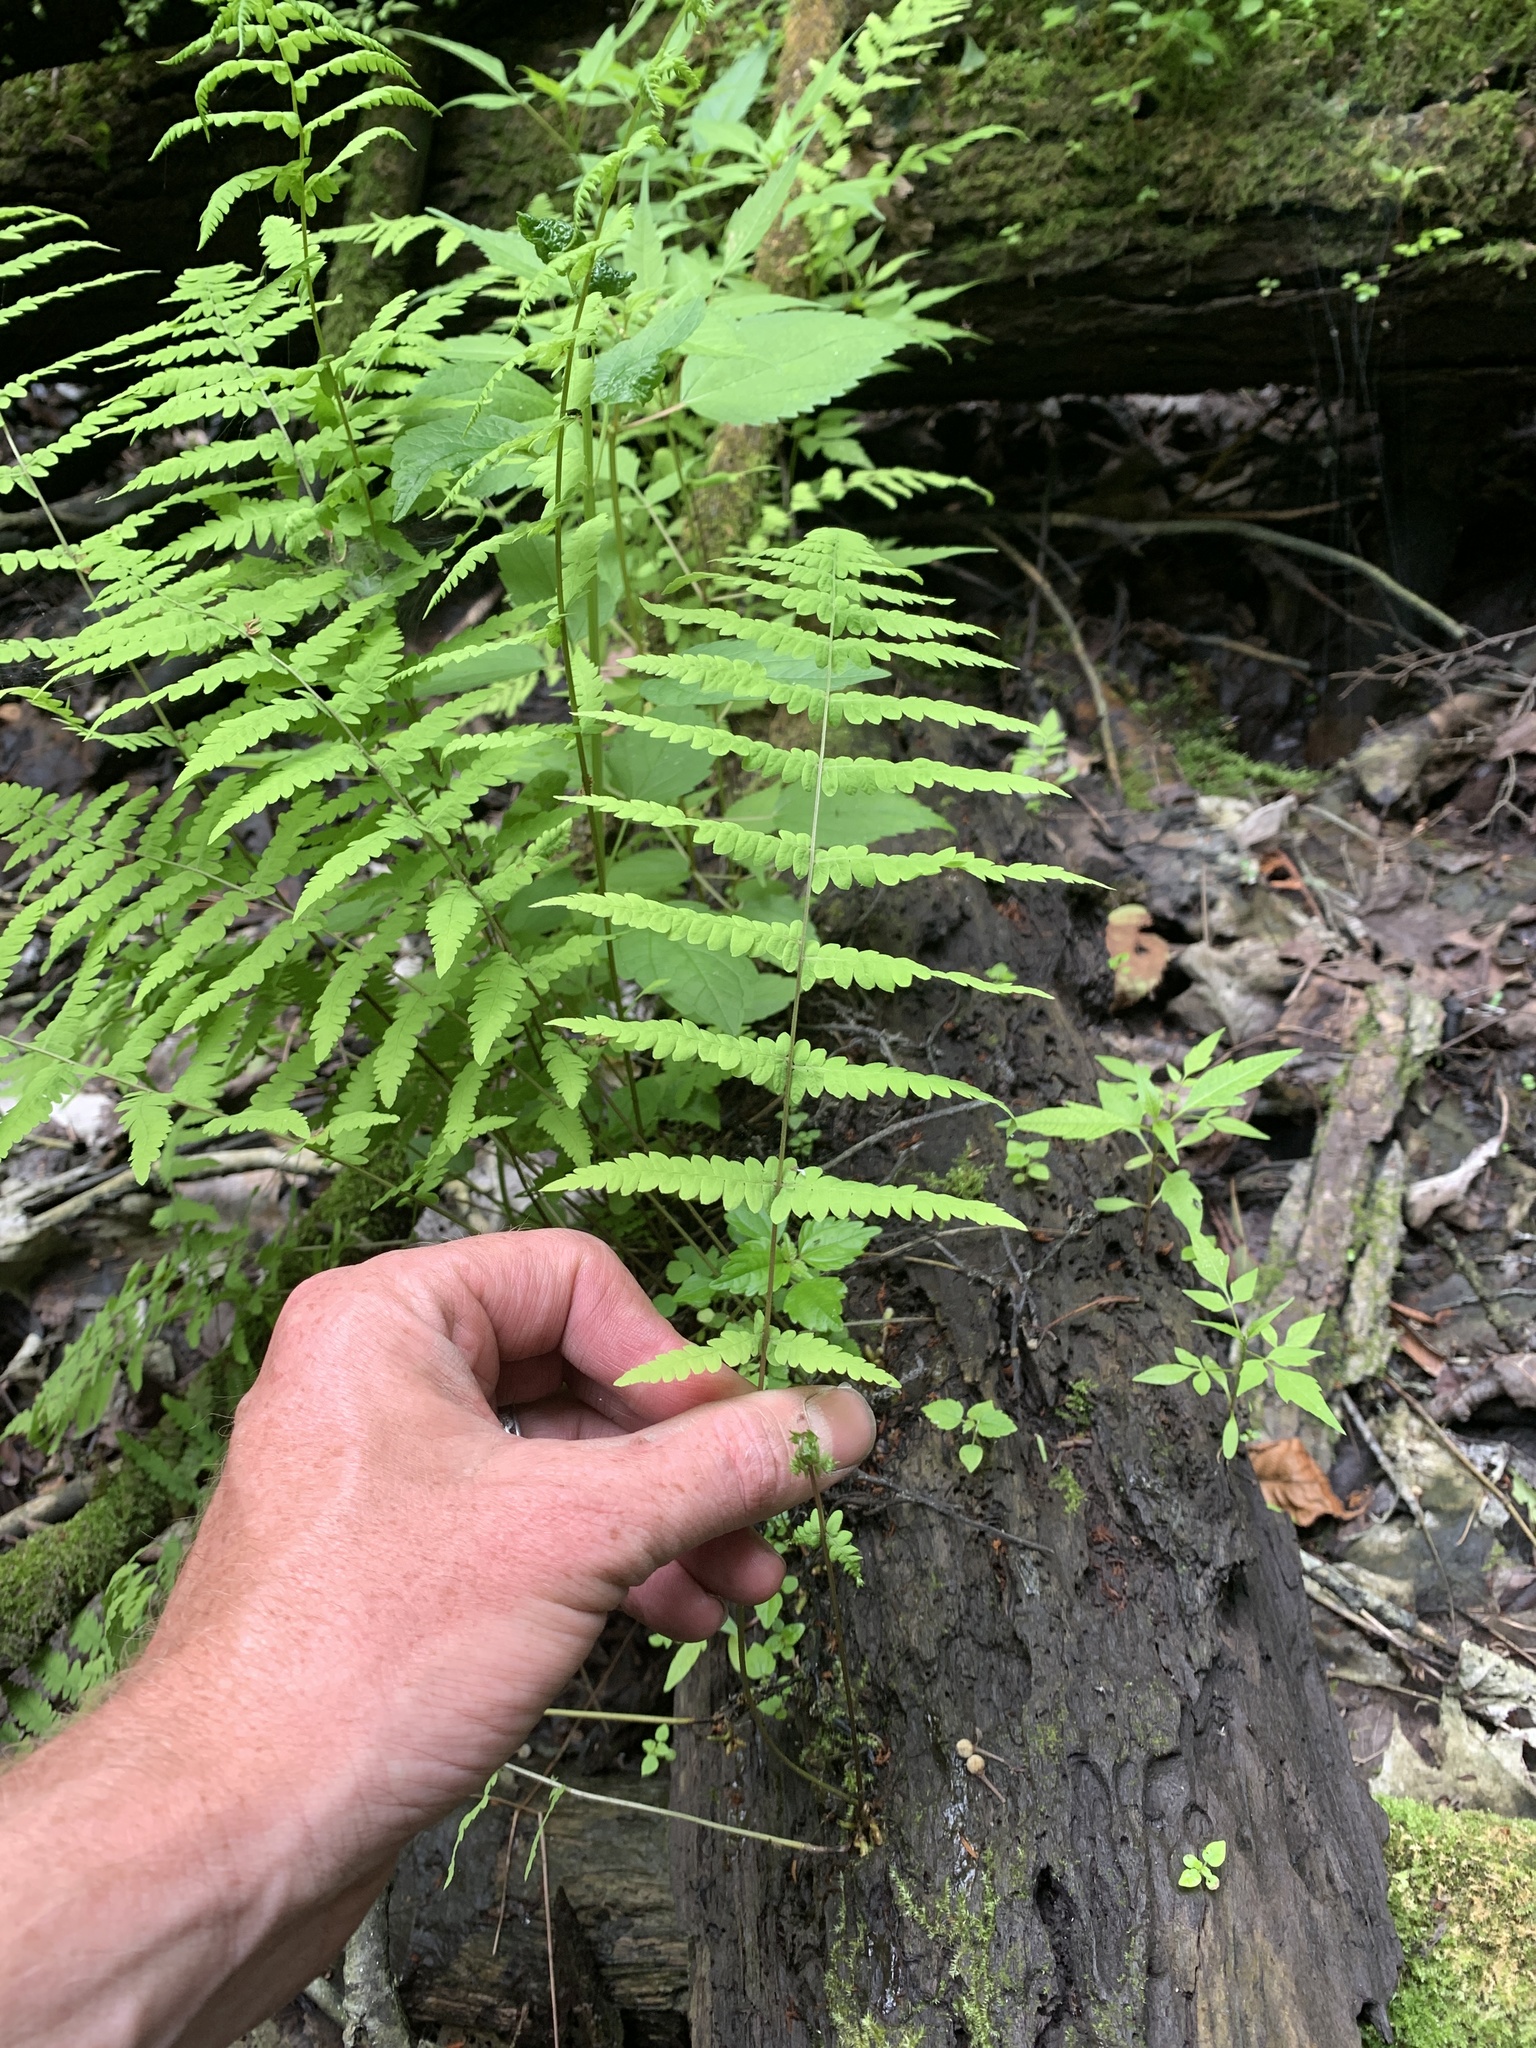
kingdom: Plantae
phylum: Tracheophyta
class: Polypodiopsida
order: Polypodiales
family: Thelypteridaceae
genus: Thelypteris
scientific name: Thelypteris palustris
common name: Marsh fern
